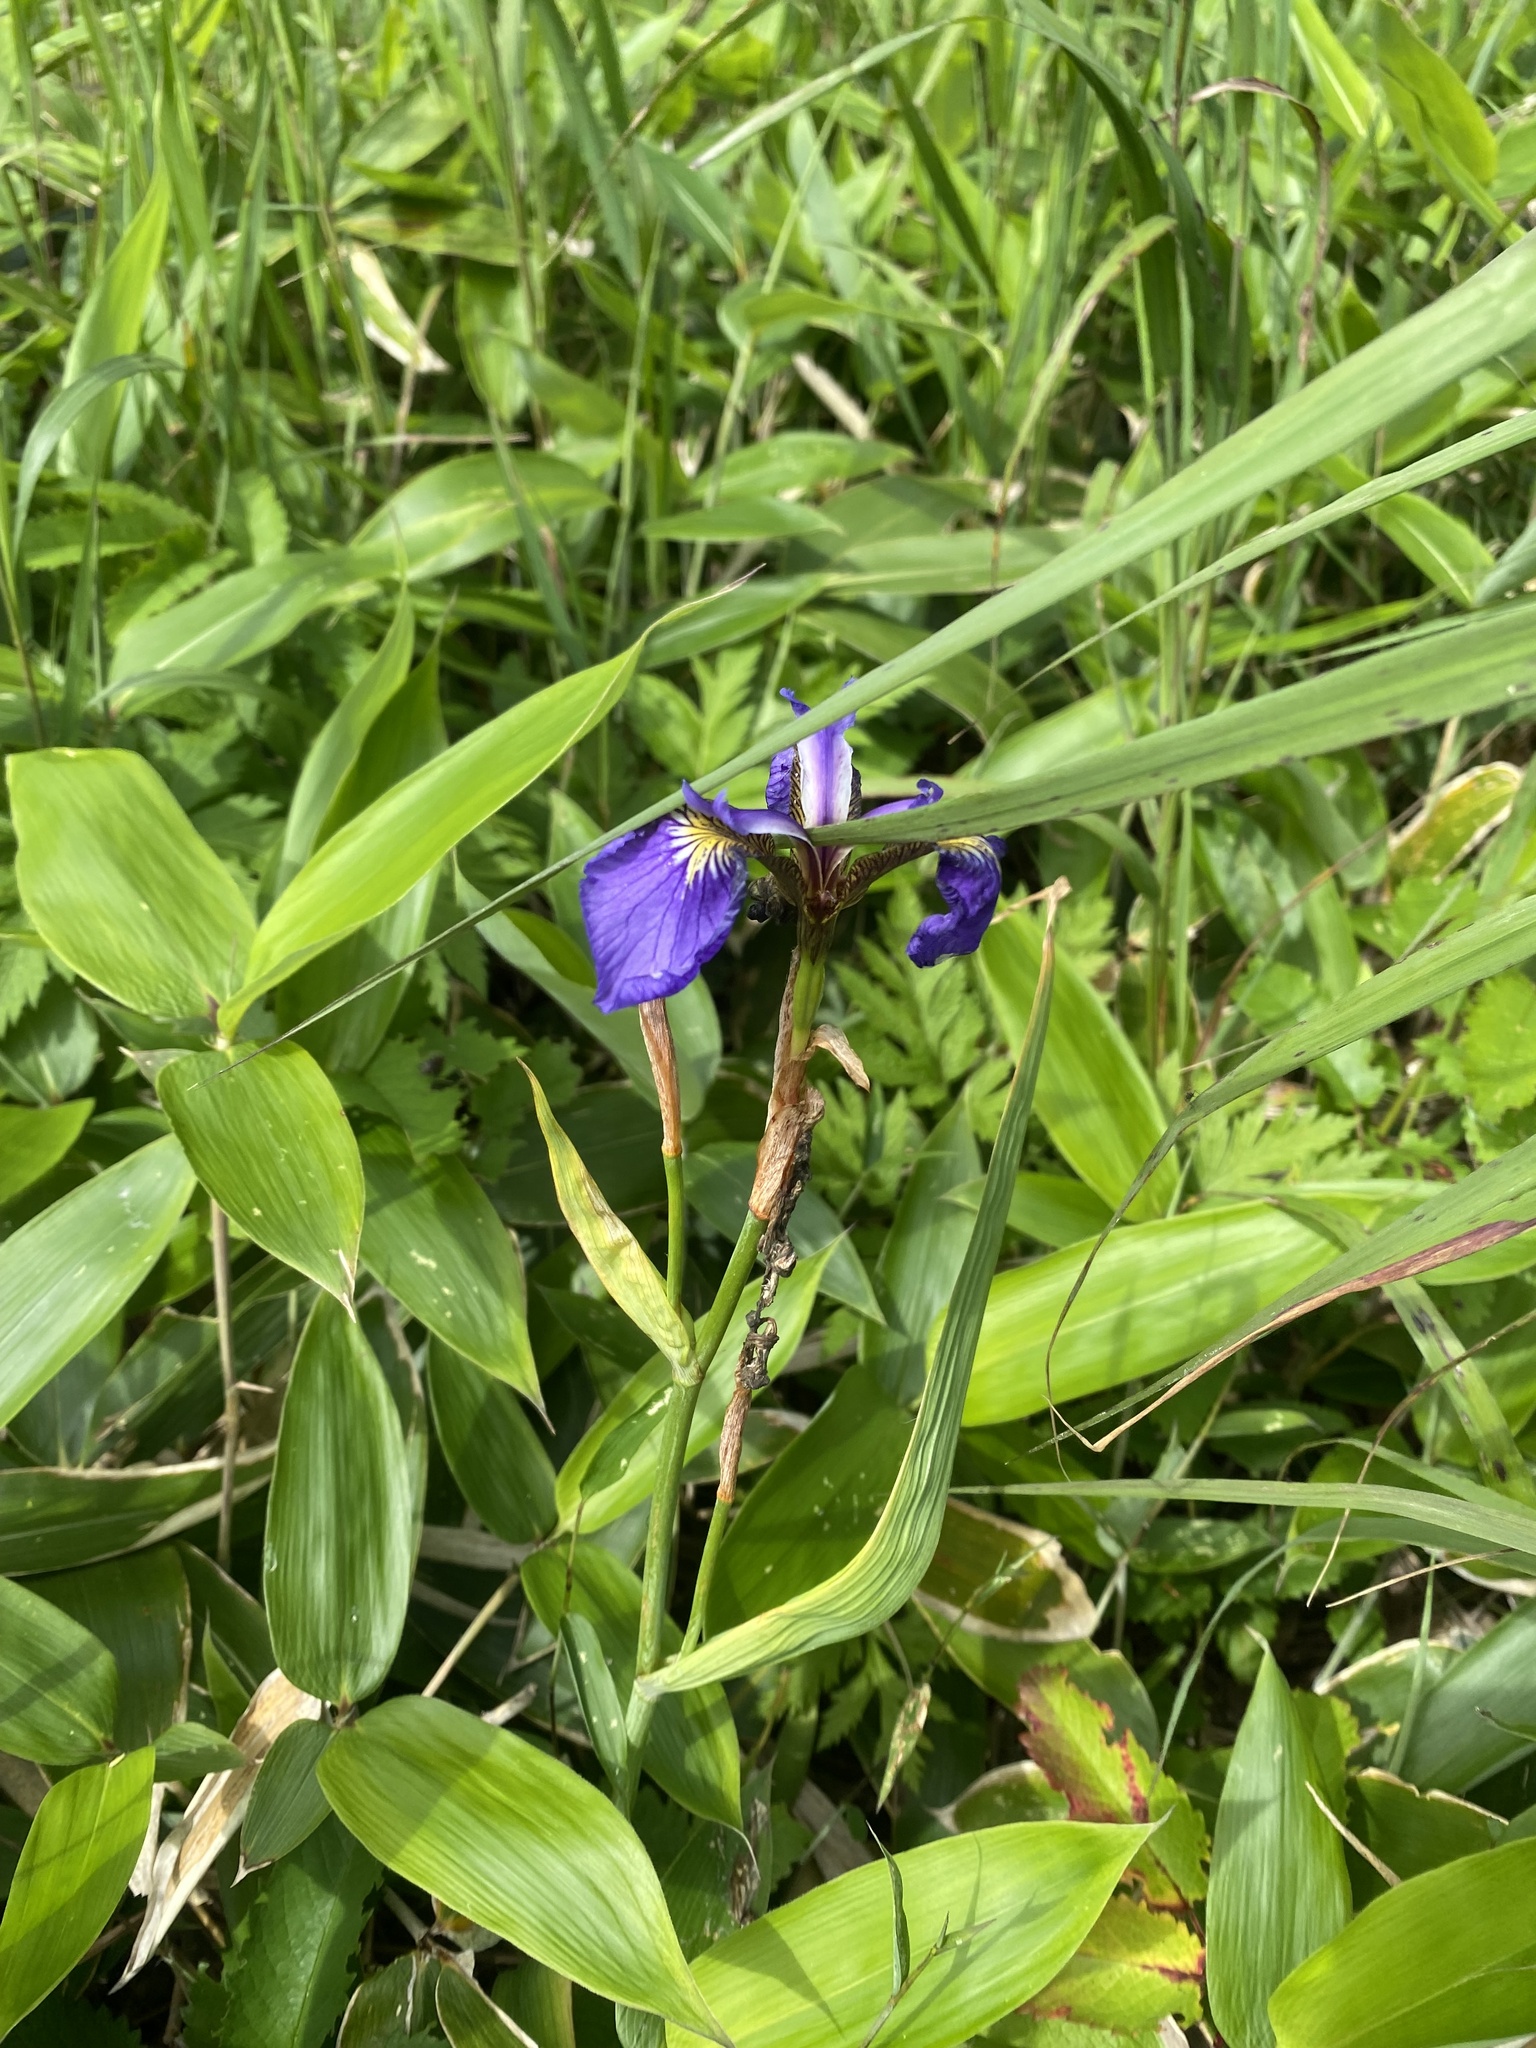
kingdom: Plantae
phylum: Tracheophyta
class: Liliopsida
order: Asparagales
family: Iridaceae
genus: Iris
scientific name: Iris setosa
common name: Arctic blue flag
